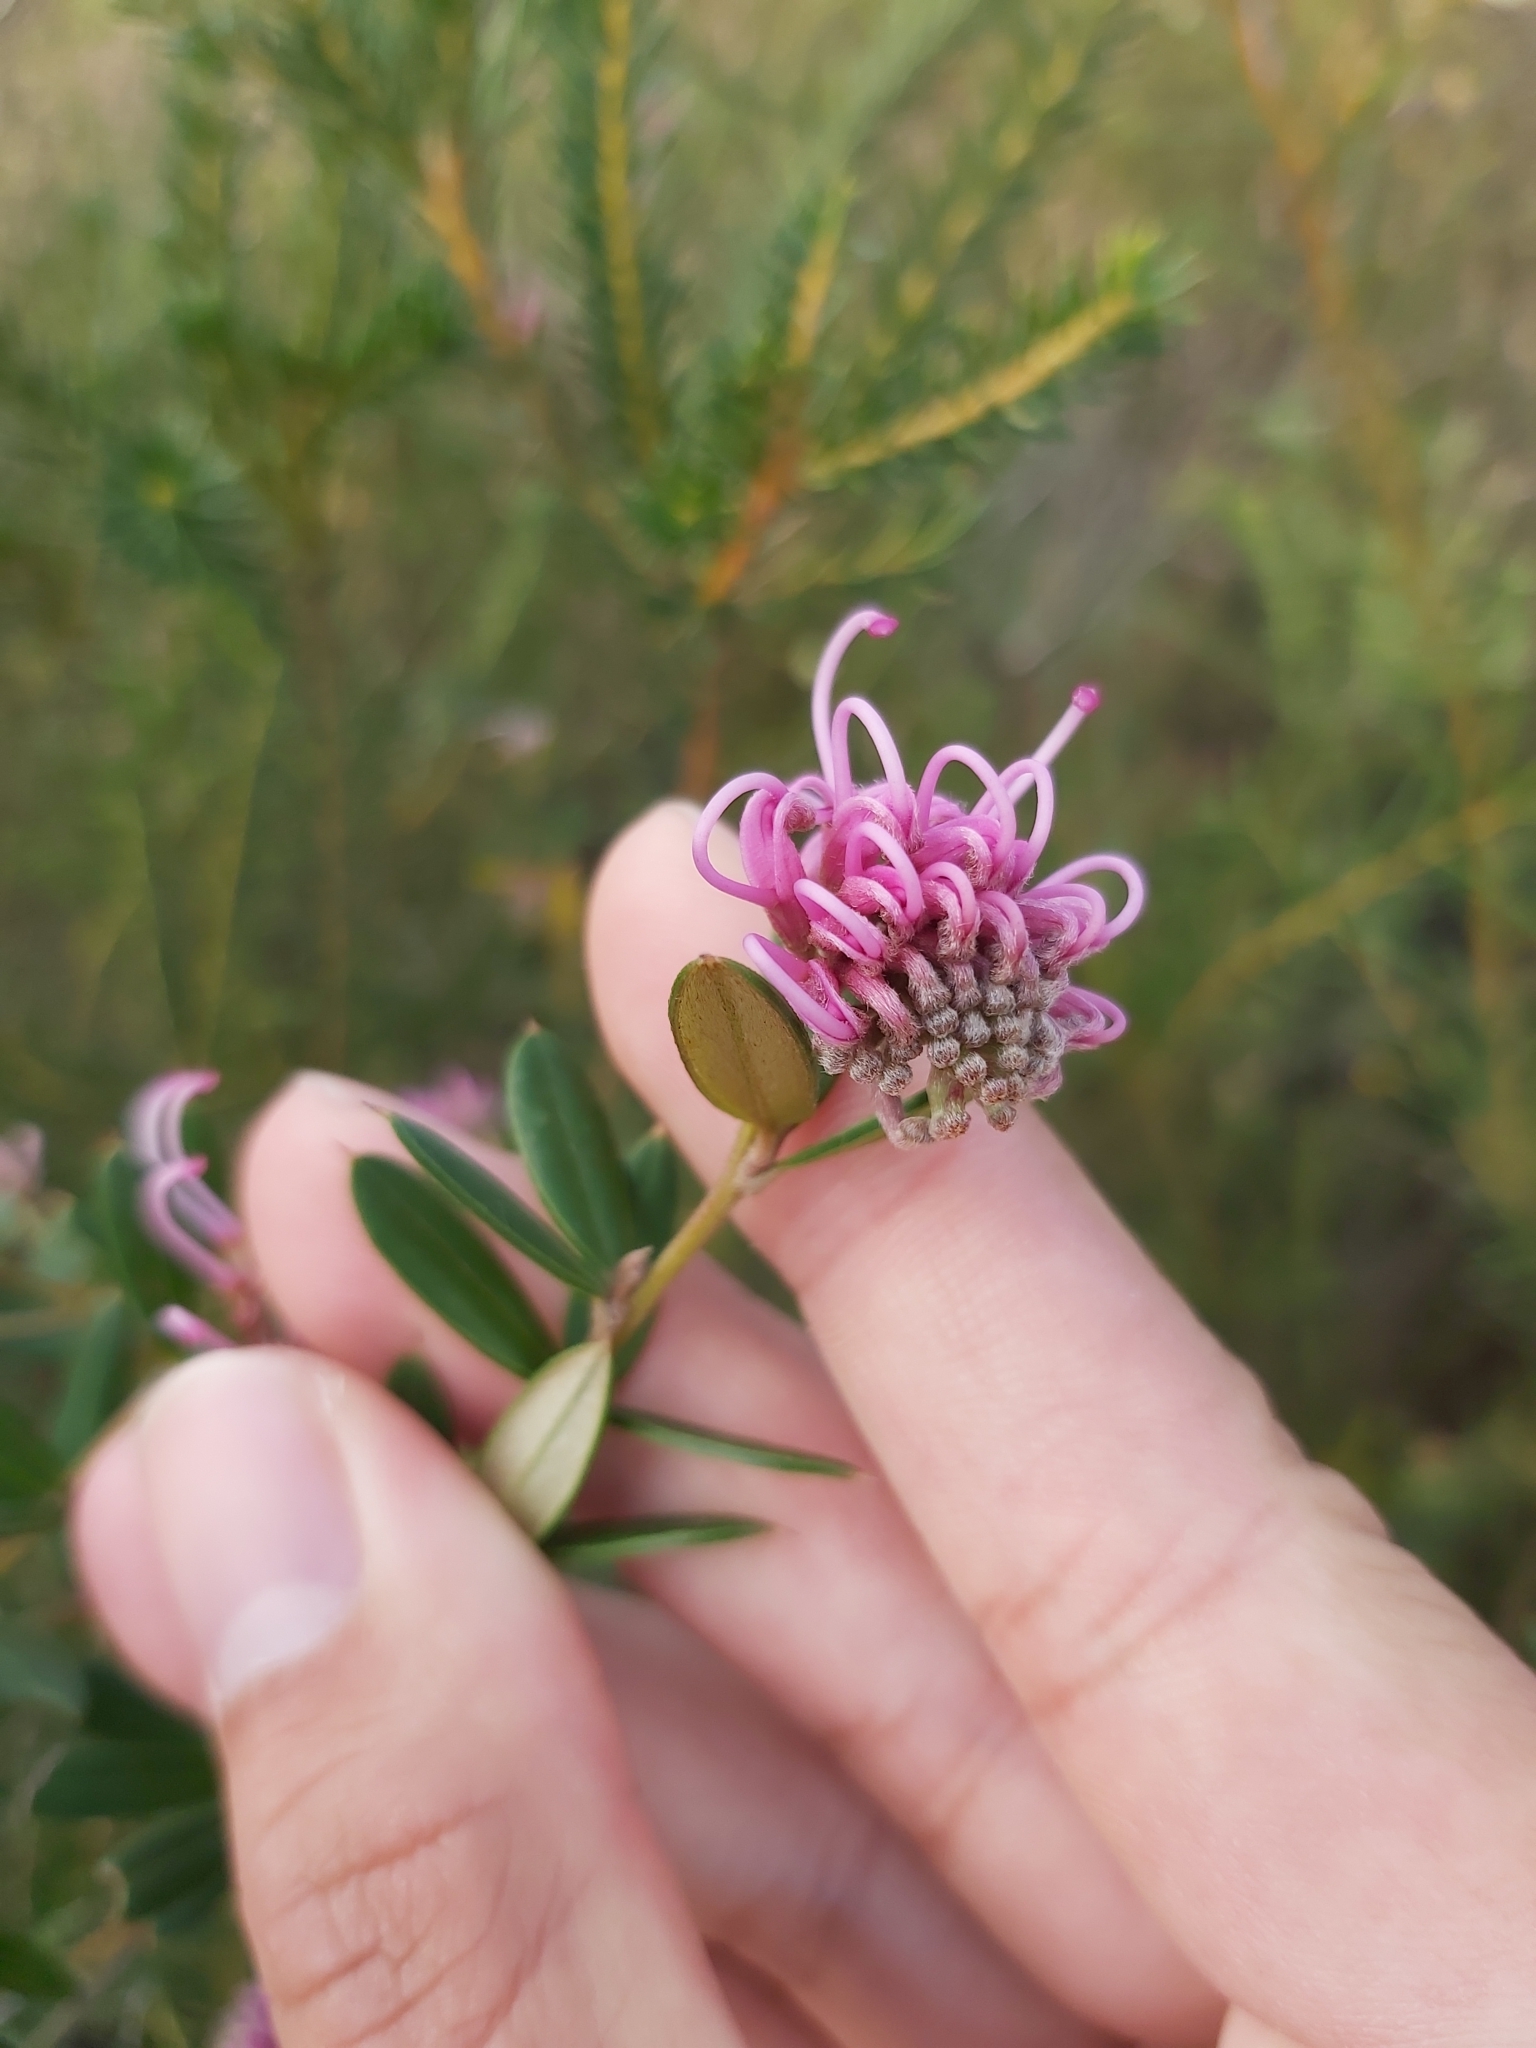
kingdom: Plantae
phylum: Tracheophyta
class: Magnoliopsida
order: Proteales
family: Proteaceae
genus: Grevillea
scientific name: Grevillea sericea
